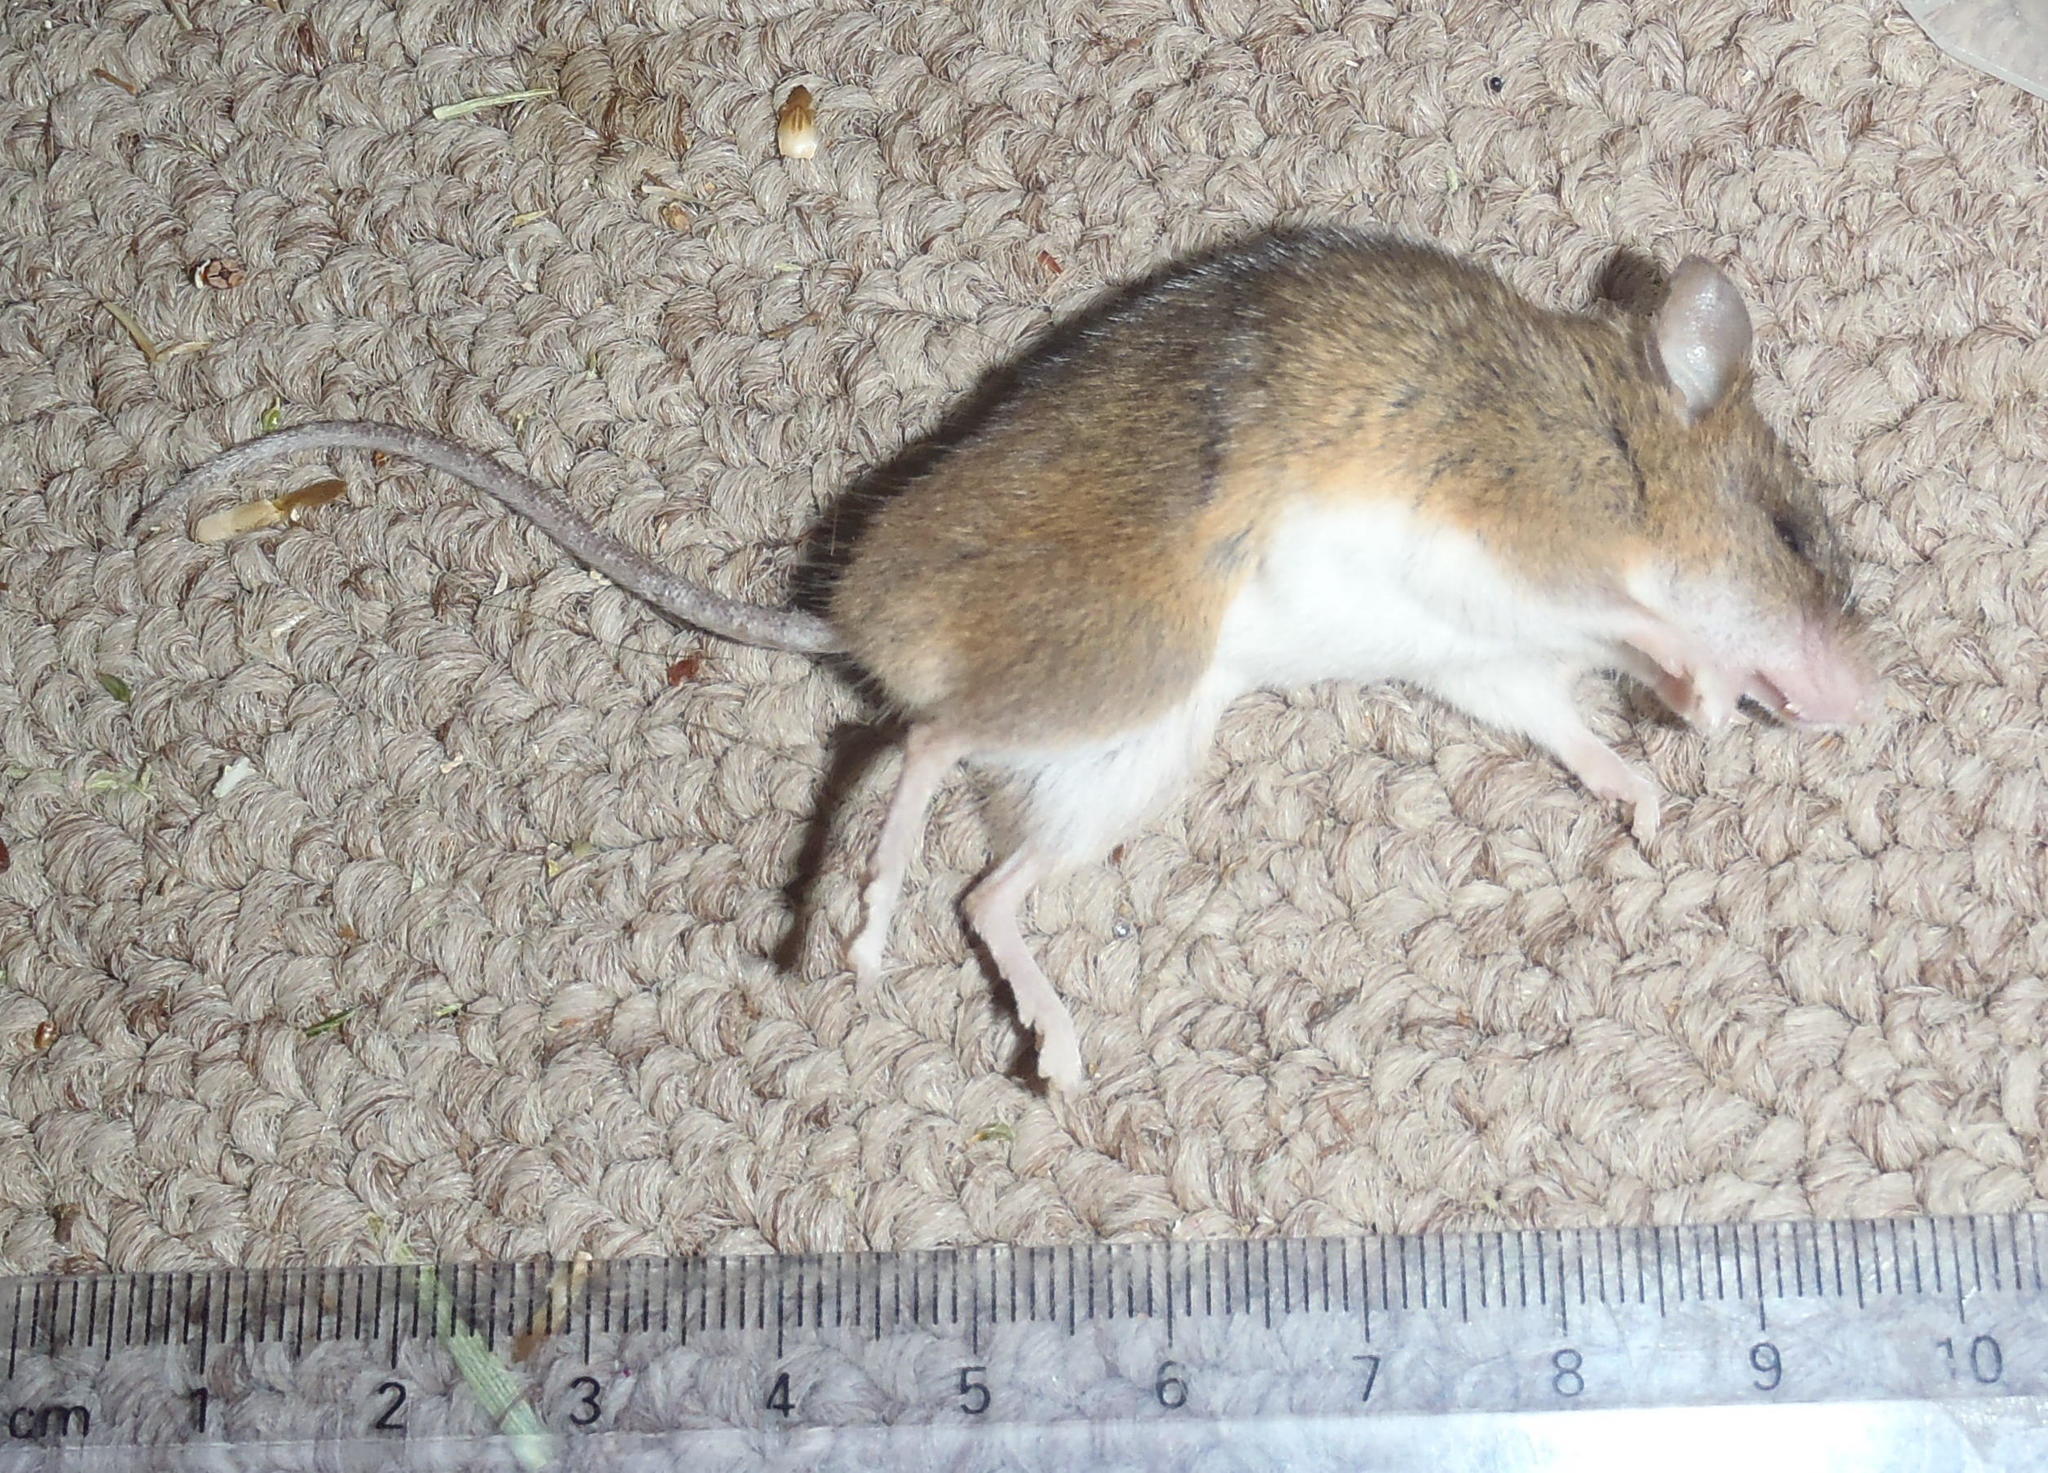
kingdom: Animalia
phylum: Chordata
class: Mammalia
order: Rodentia
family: Nesomyidae
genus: Steatomys
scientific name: Steatomys krebsii
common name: Kreb's fat mouse
